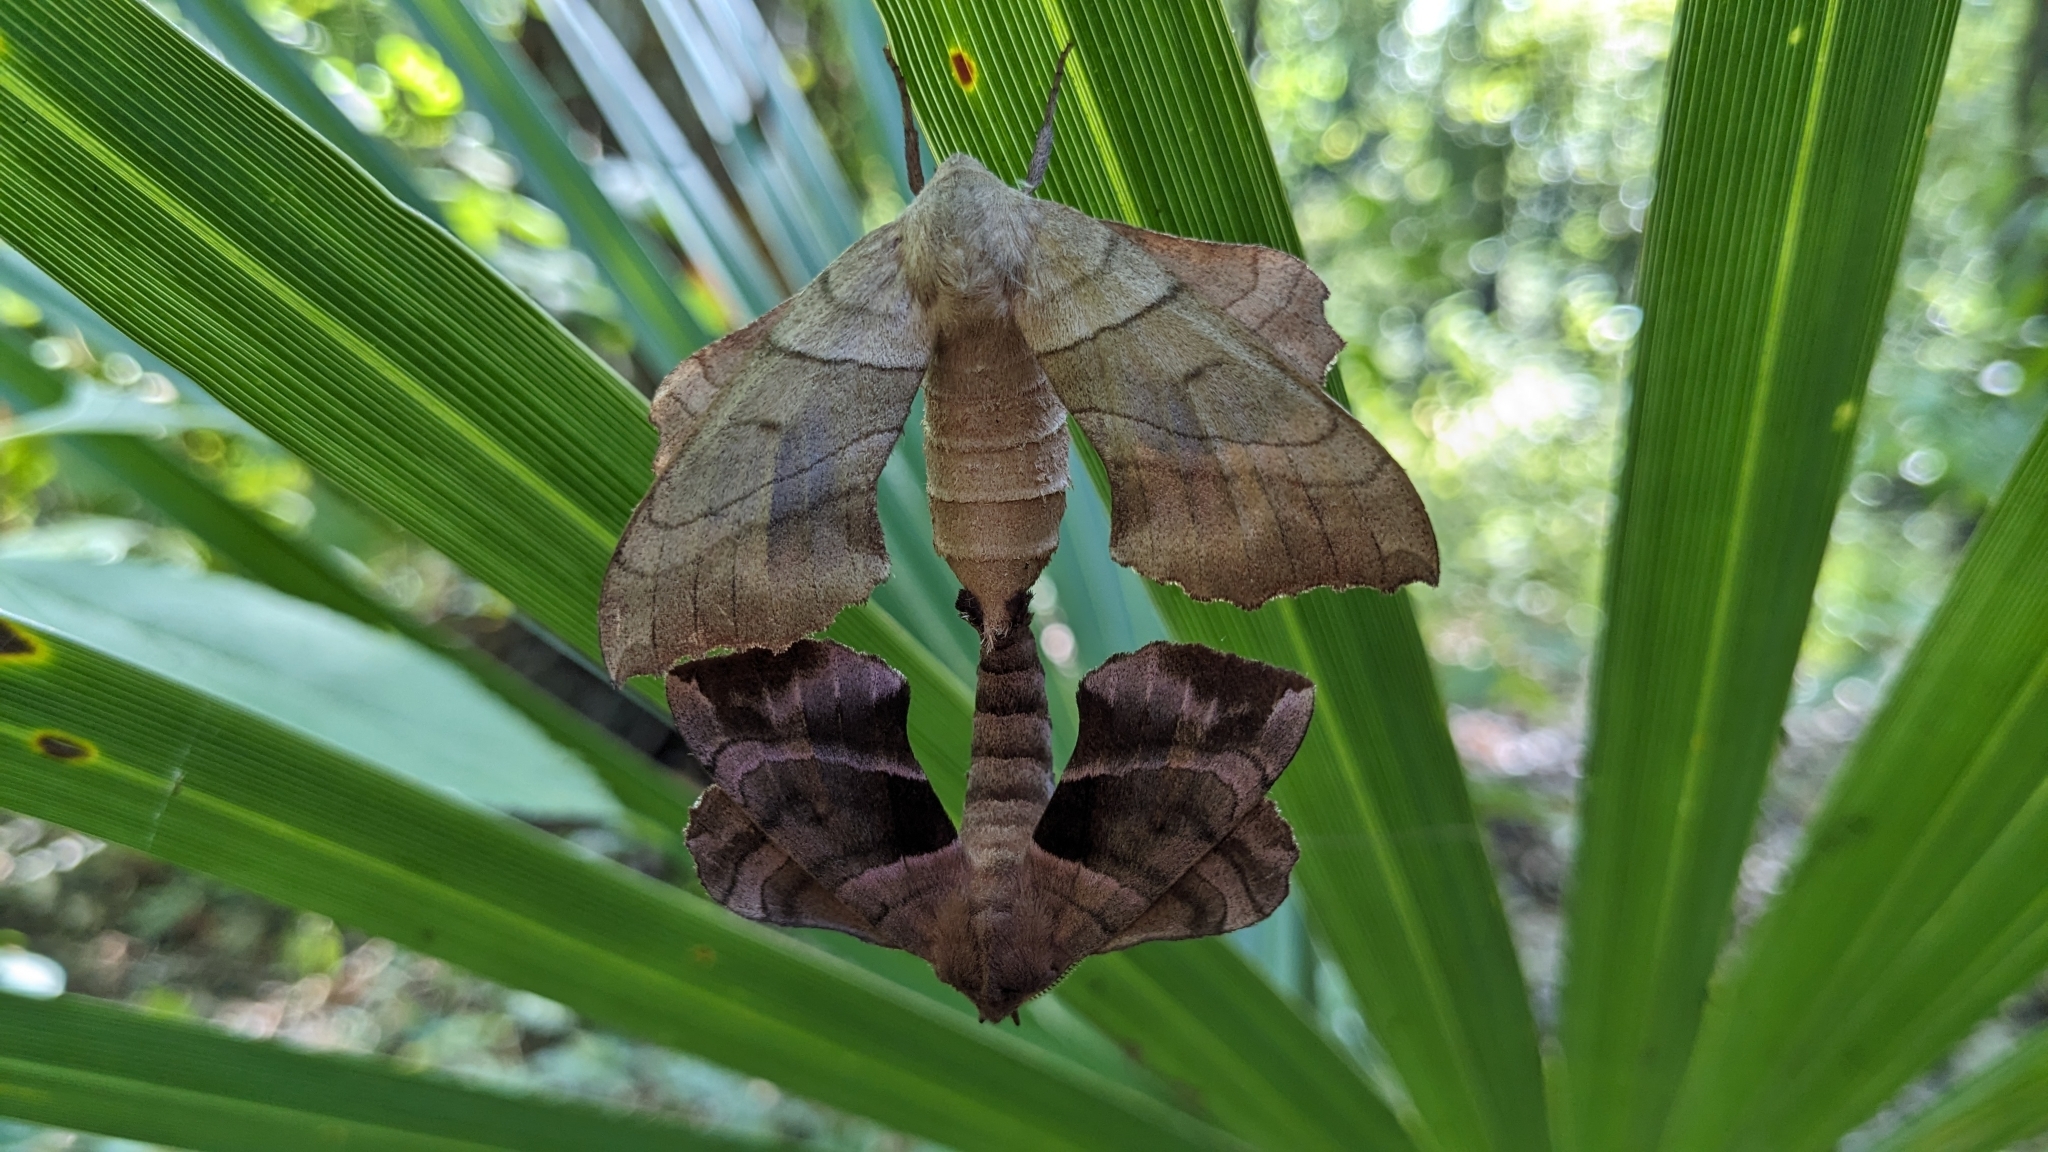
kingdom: Animalia
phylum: Arthropoda
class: Insecta
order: Lepidoptera
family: Sphingidae
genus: Amorpha
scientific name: Amorpha juglandis
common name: Walnut sphinx
